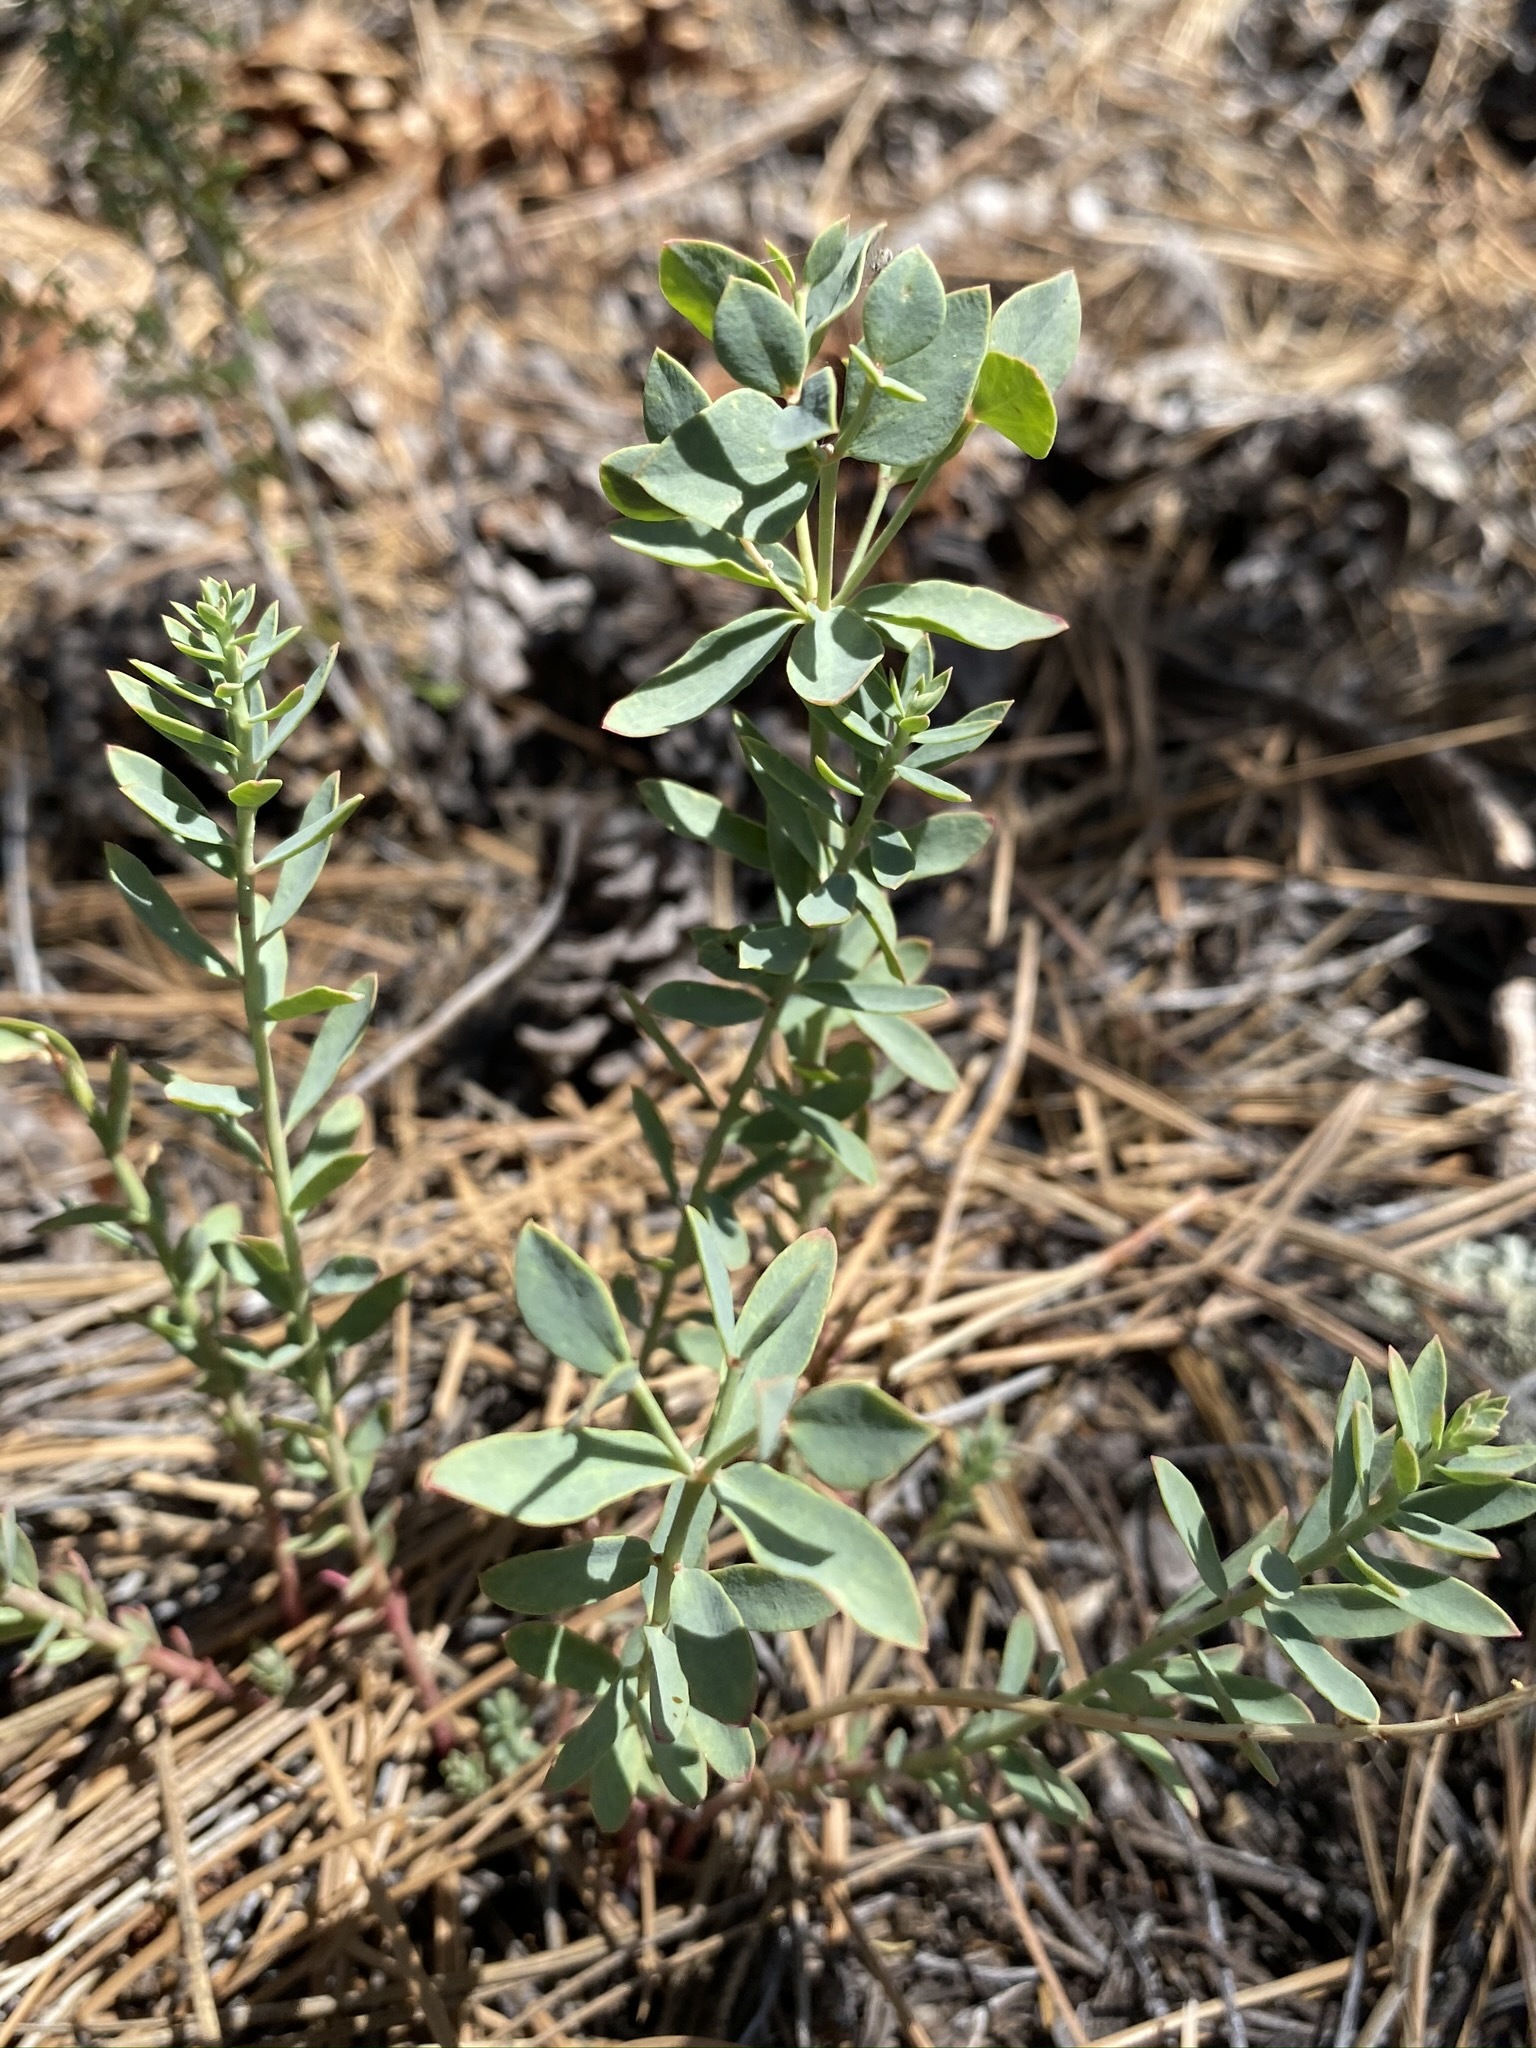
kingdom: Plantae
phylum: Tracheophyta
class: Magnoliopsida
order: Malpighiales
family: Euphorbiaceae
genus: Euphorbia
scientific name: Euphorbia lurida
